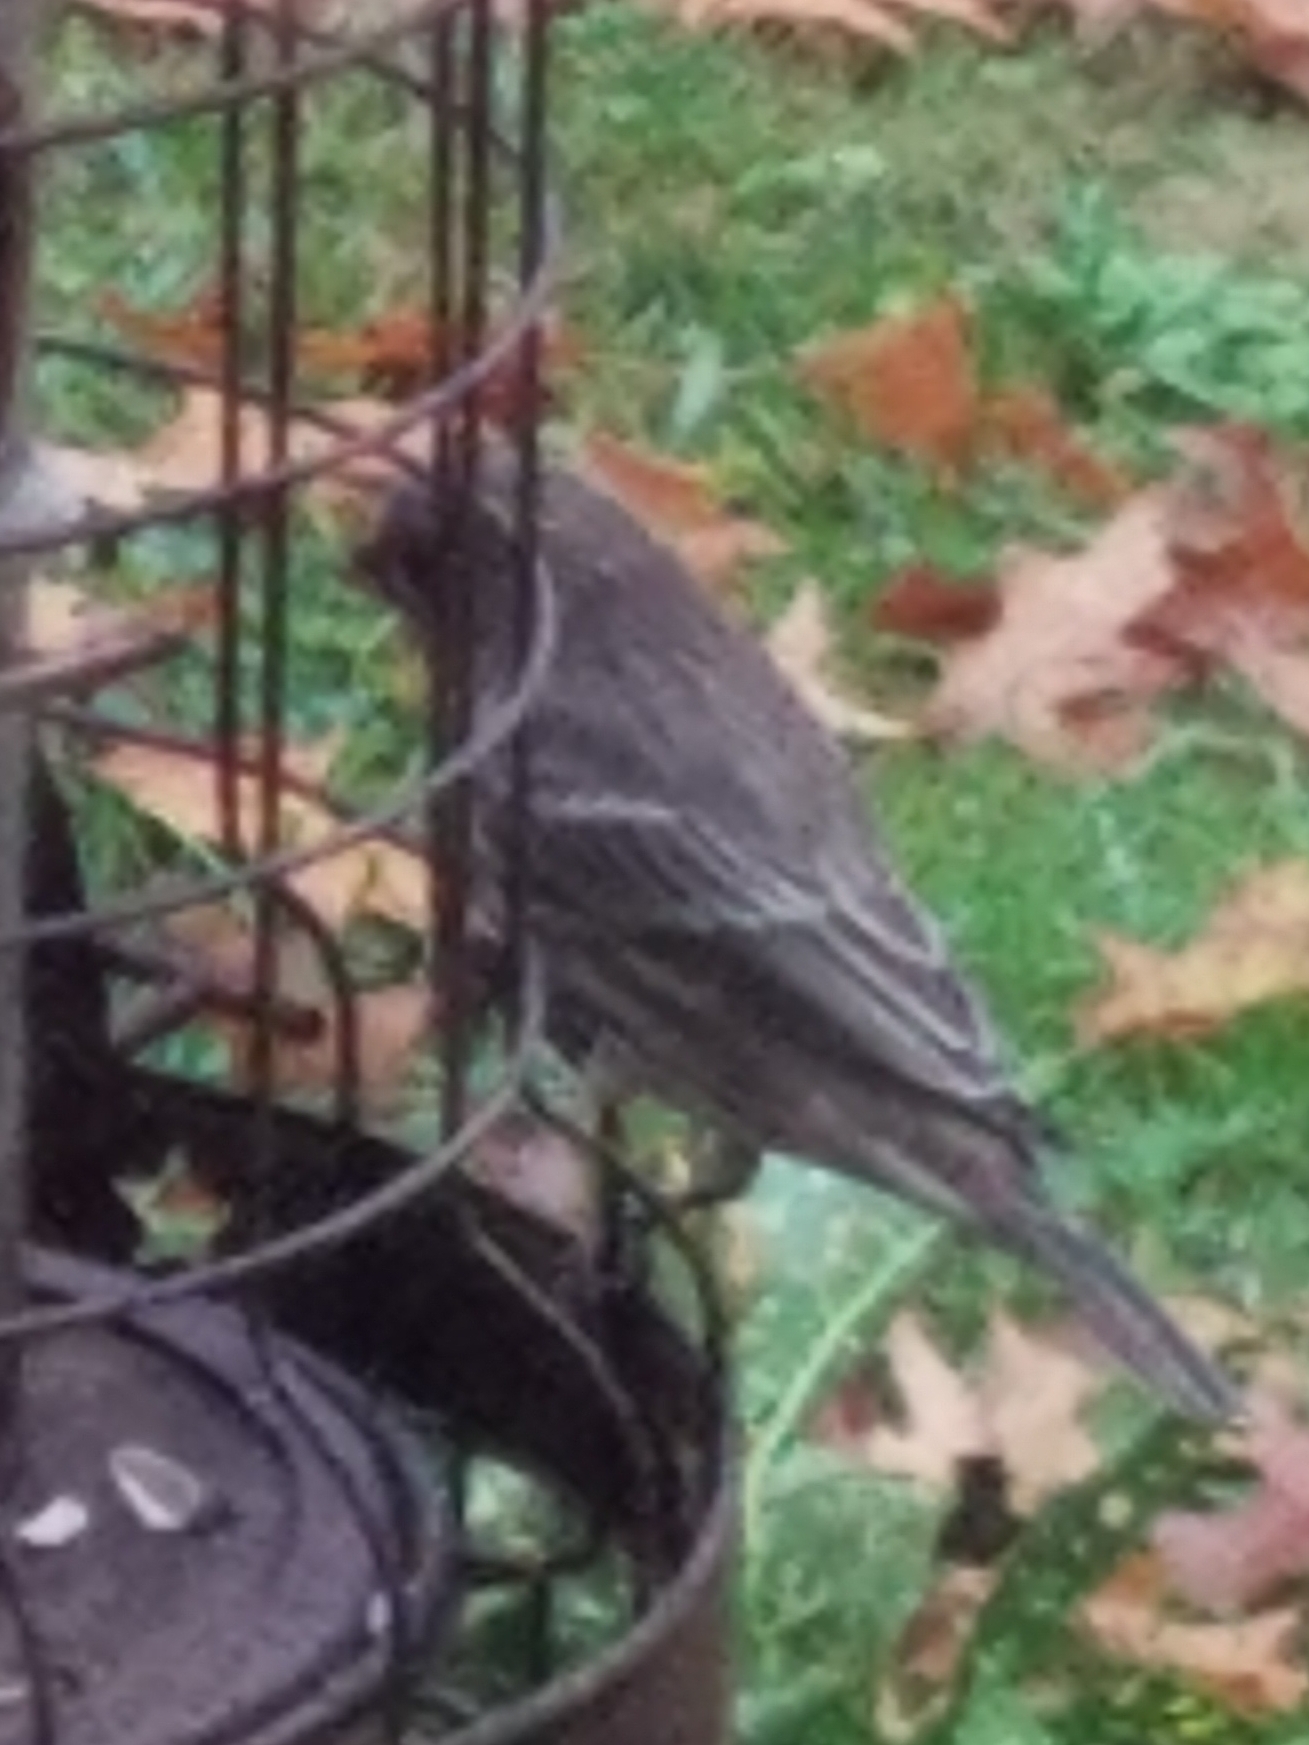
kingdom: Animalia
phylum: Chordata
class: Aves
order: Passeriformes
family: Fringillidae
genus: Haemorhous
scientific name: Haemorhous mexicanus
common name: House finch
